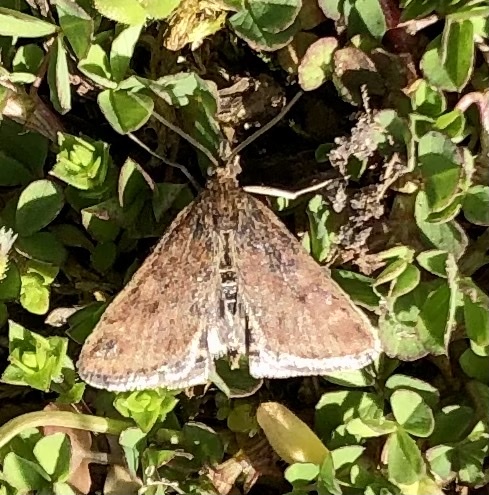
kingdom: Animalia
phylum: Arthropoda
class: Insecta
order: Lepidoptera
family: Crambidae
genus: Pyrausta
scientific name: Pyrausta despicata
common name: Straw-barred pearl
